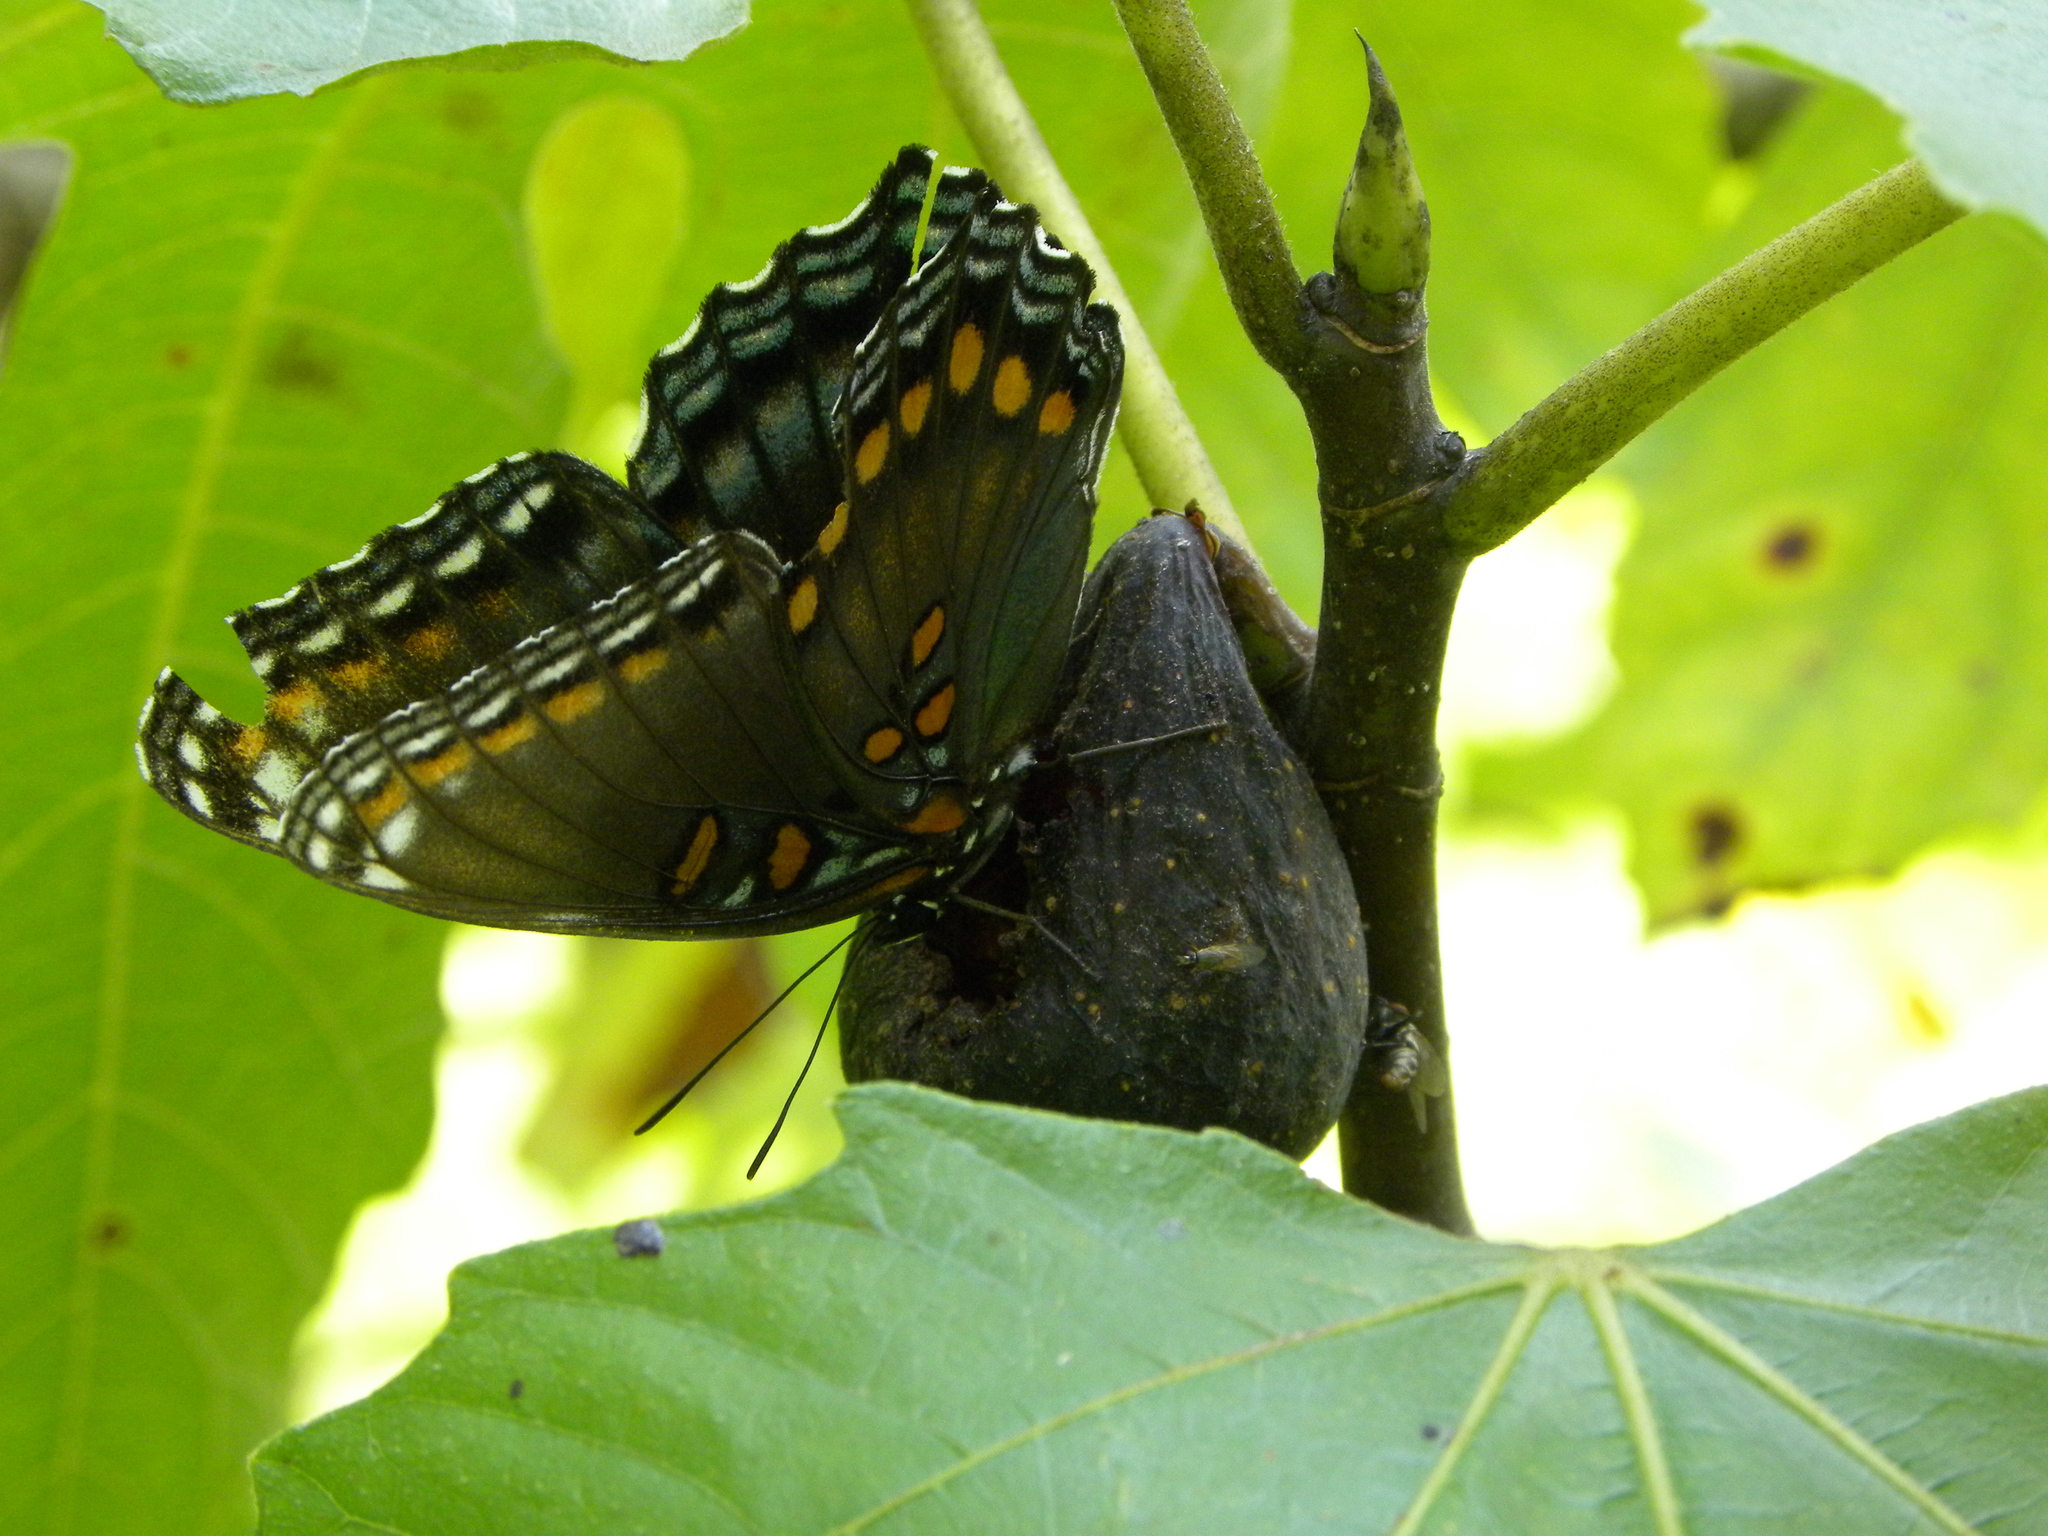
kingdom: Animalia
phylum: Arthropoda
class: Insecta
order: Lepidoptera
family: Nymphalidae
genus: Limenitis
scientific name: Limenitis astyanax
